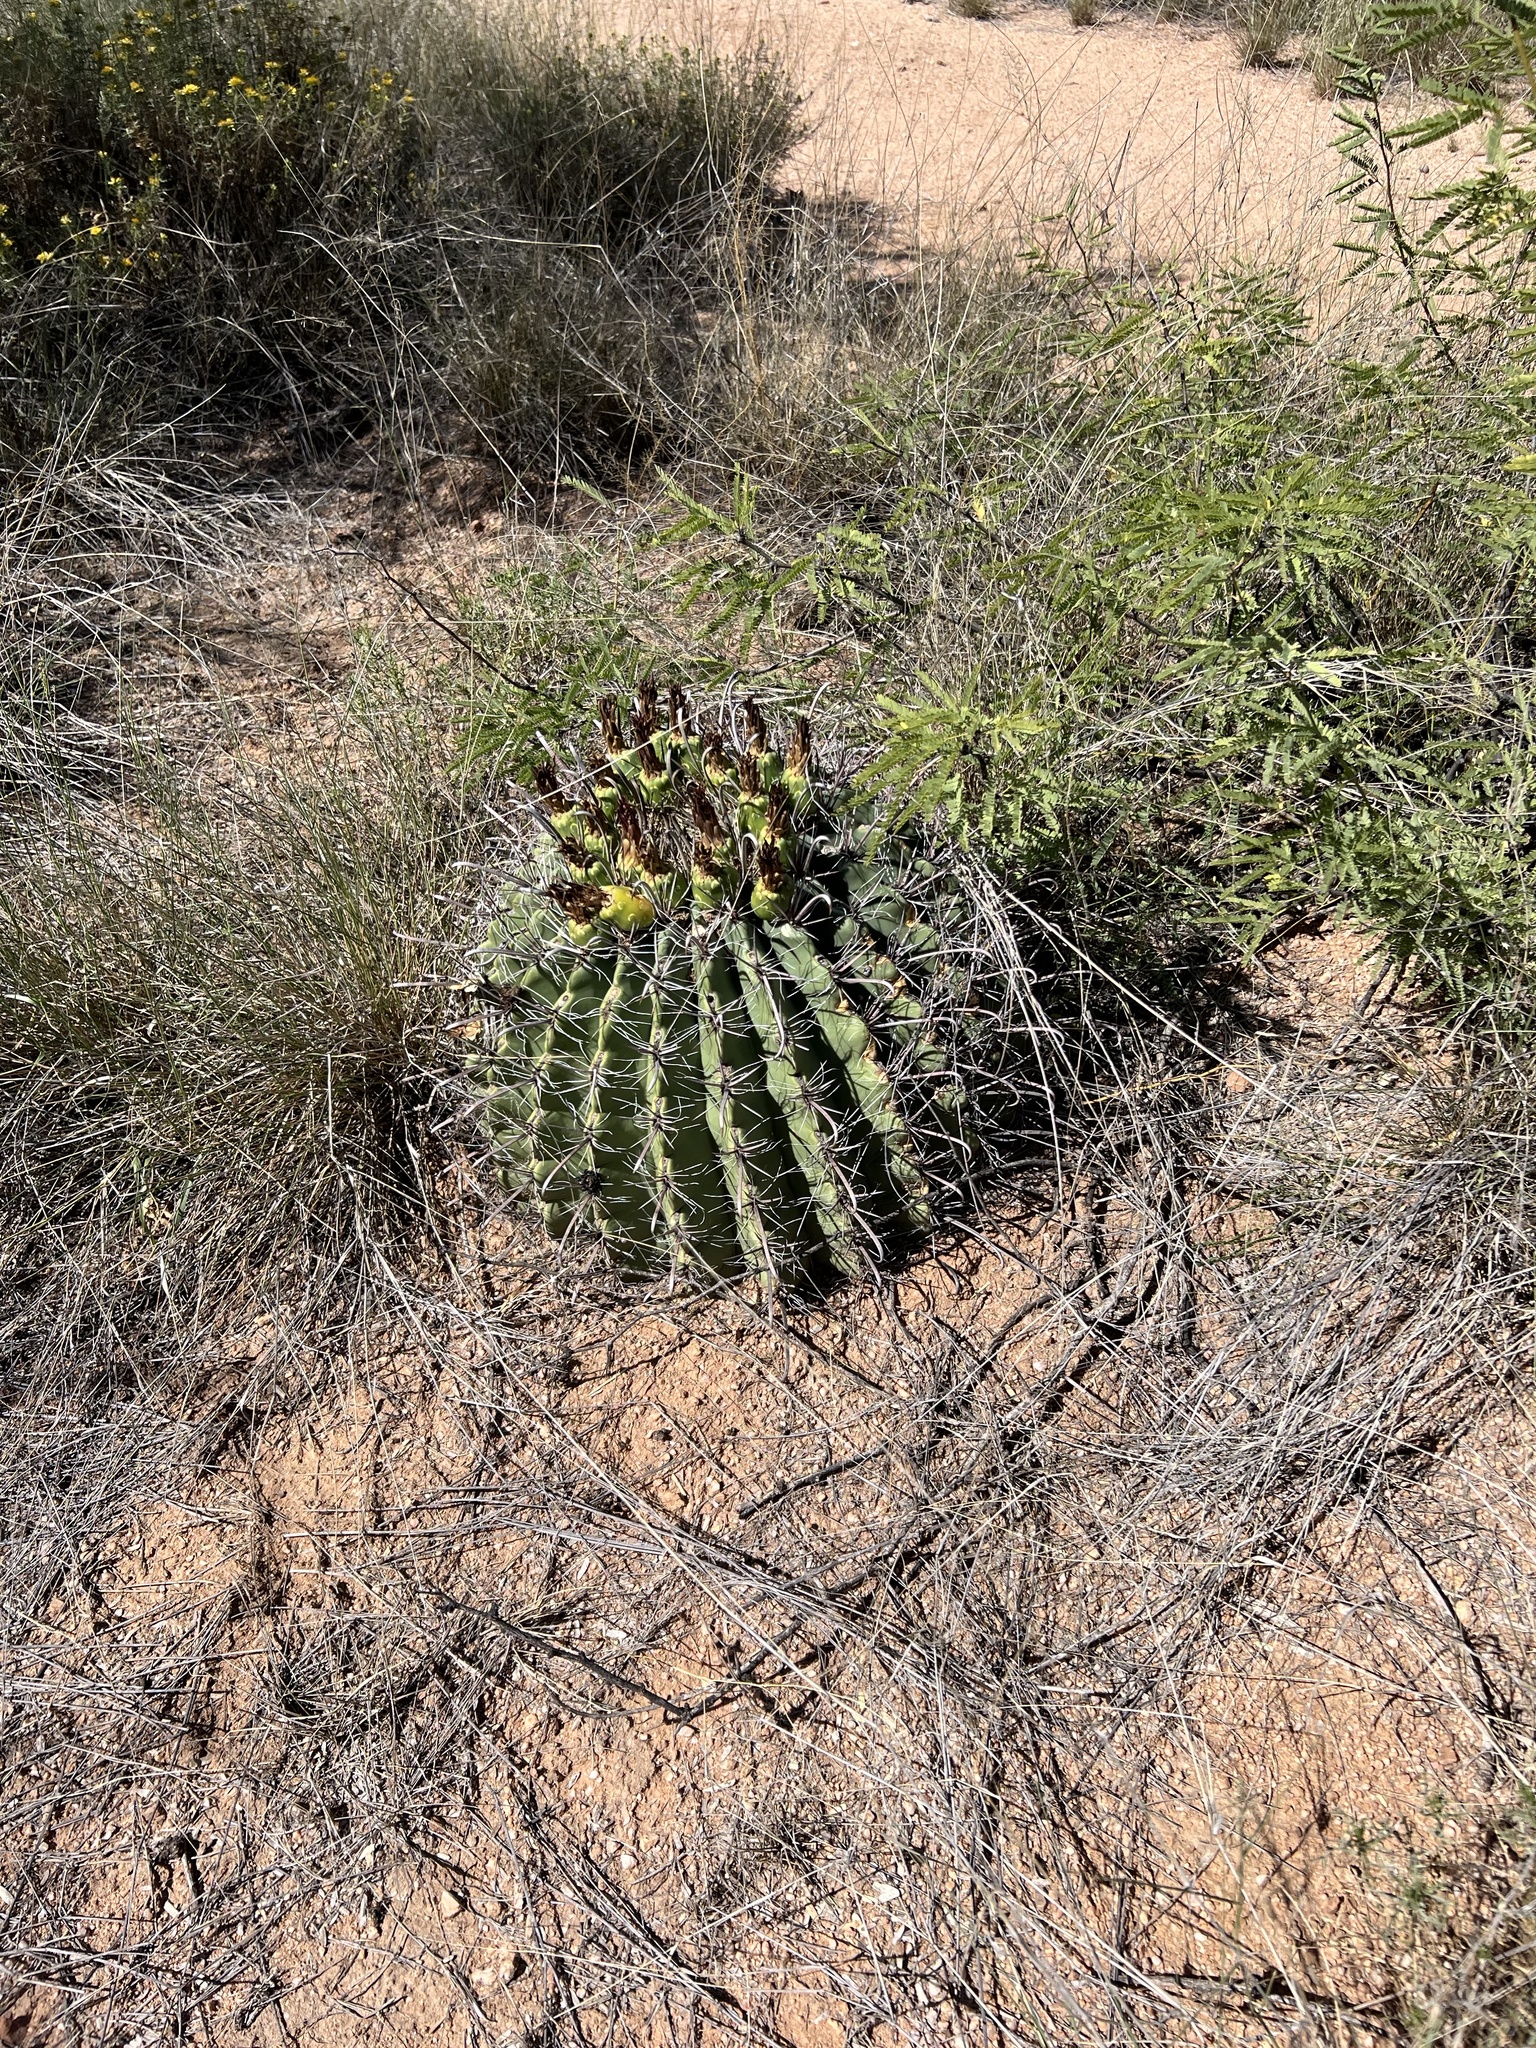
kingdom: Plantae
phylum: Tracheophyta
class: Magnoliopsida
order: Caryophyllales
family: Cactaceae
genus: Ferocactus
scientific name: Ferocactus wislizeni
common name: Candy barrel cactus
